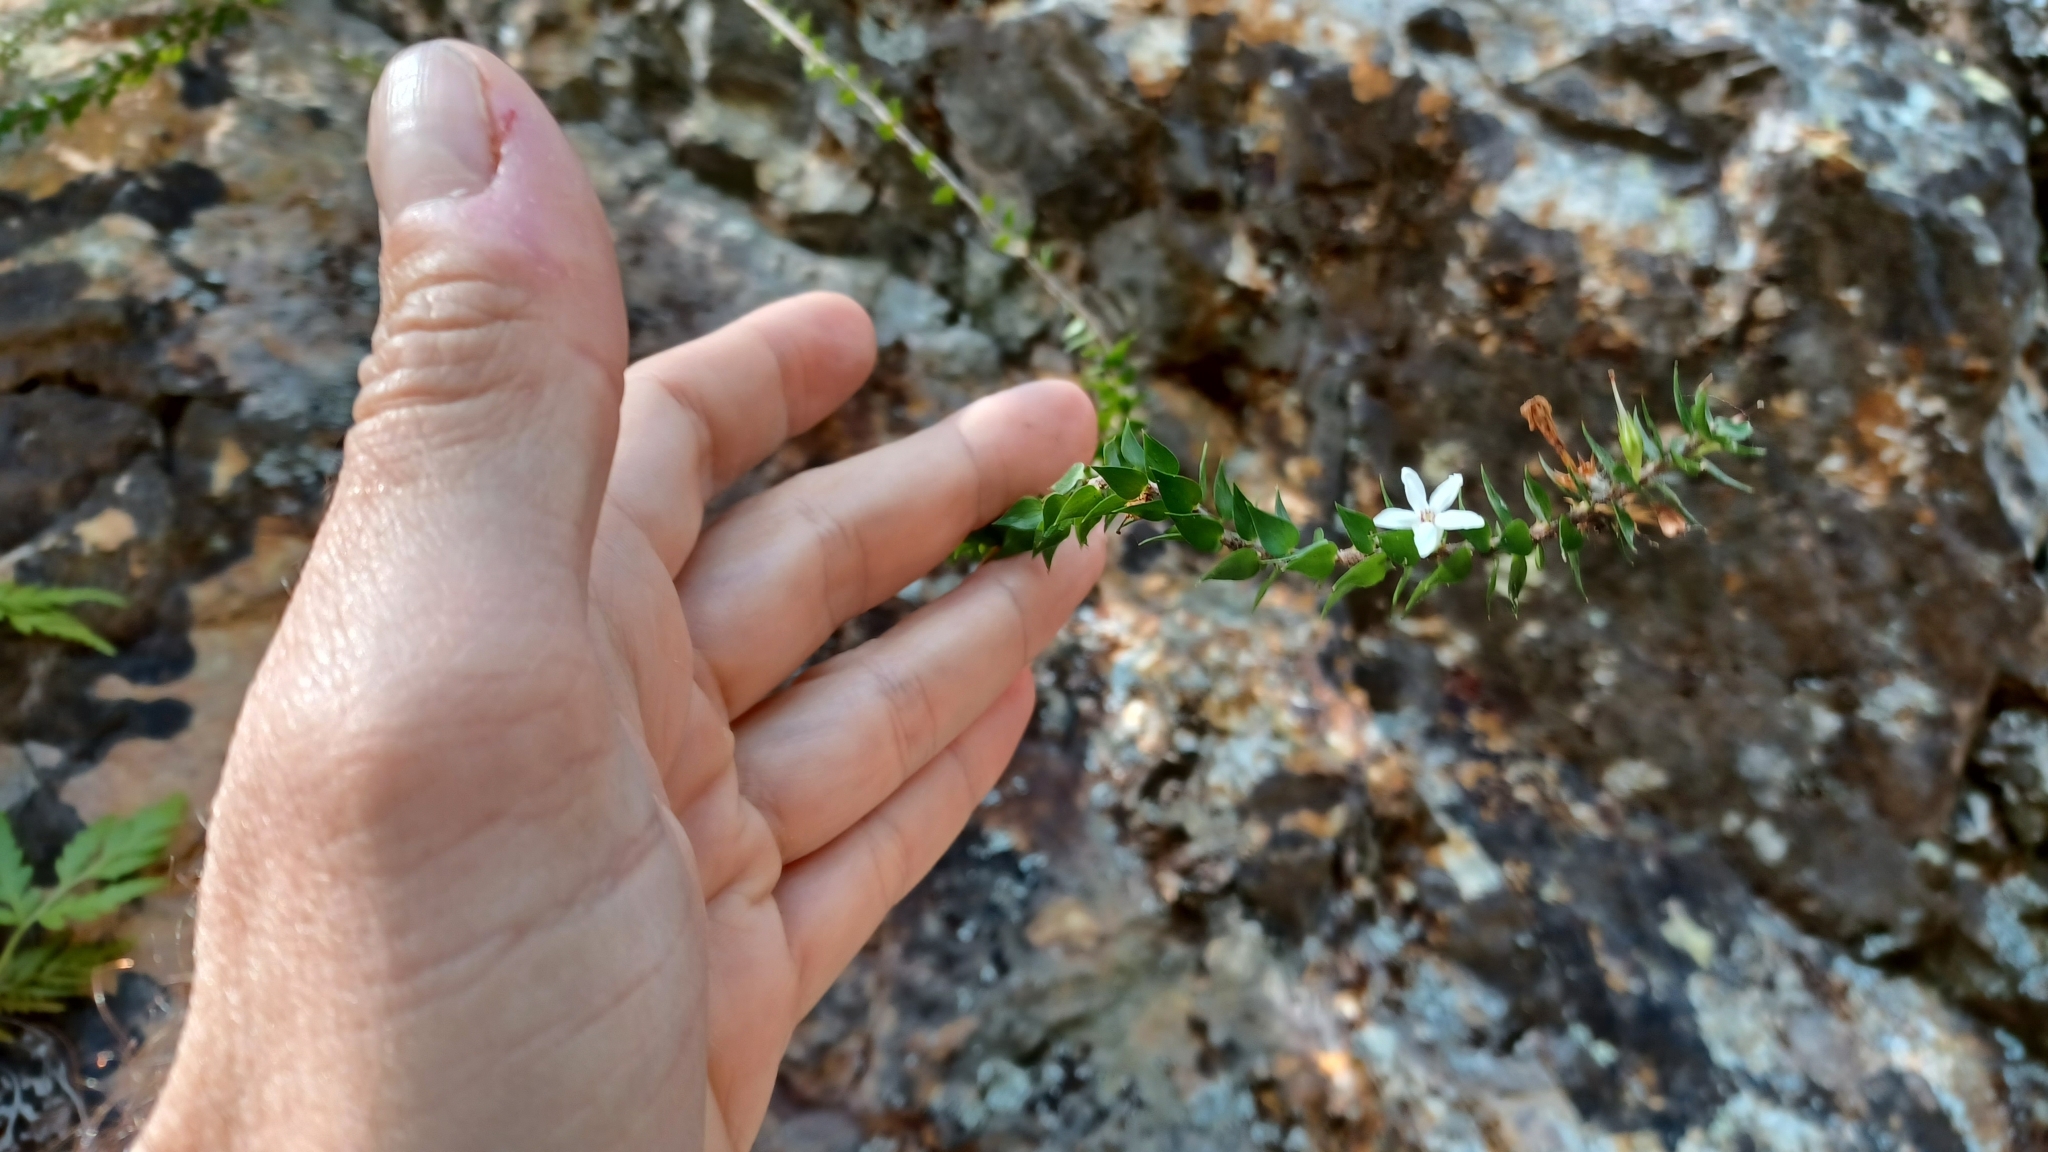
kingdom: Plantae
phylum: Tracheophyta
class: Magnoliopsida
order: Ericales
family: Ericaceae
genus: Epacris
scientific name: Epacris pulchella
